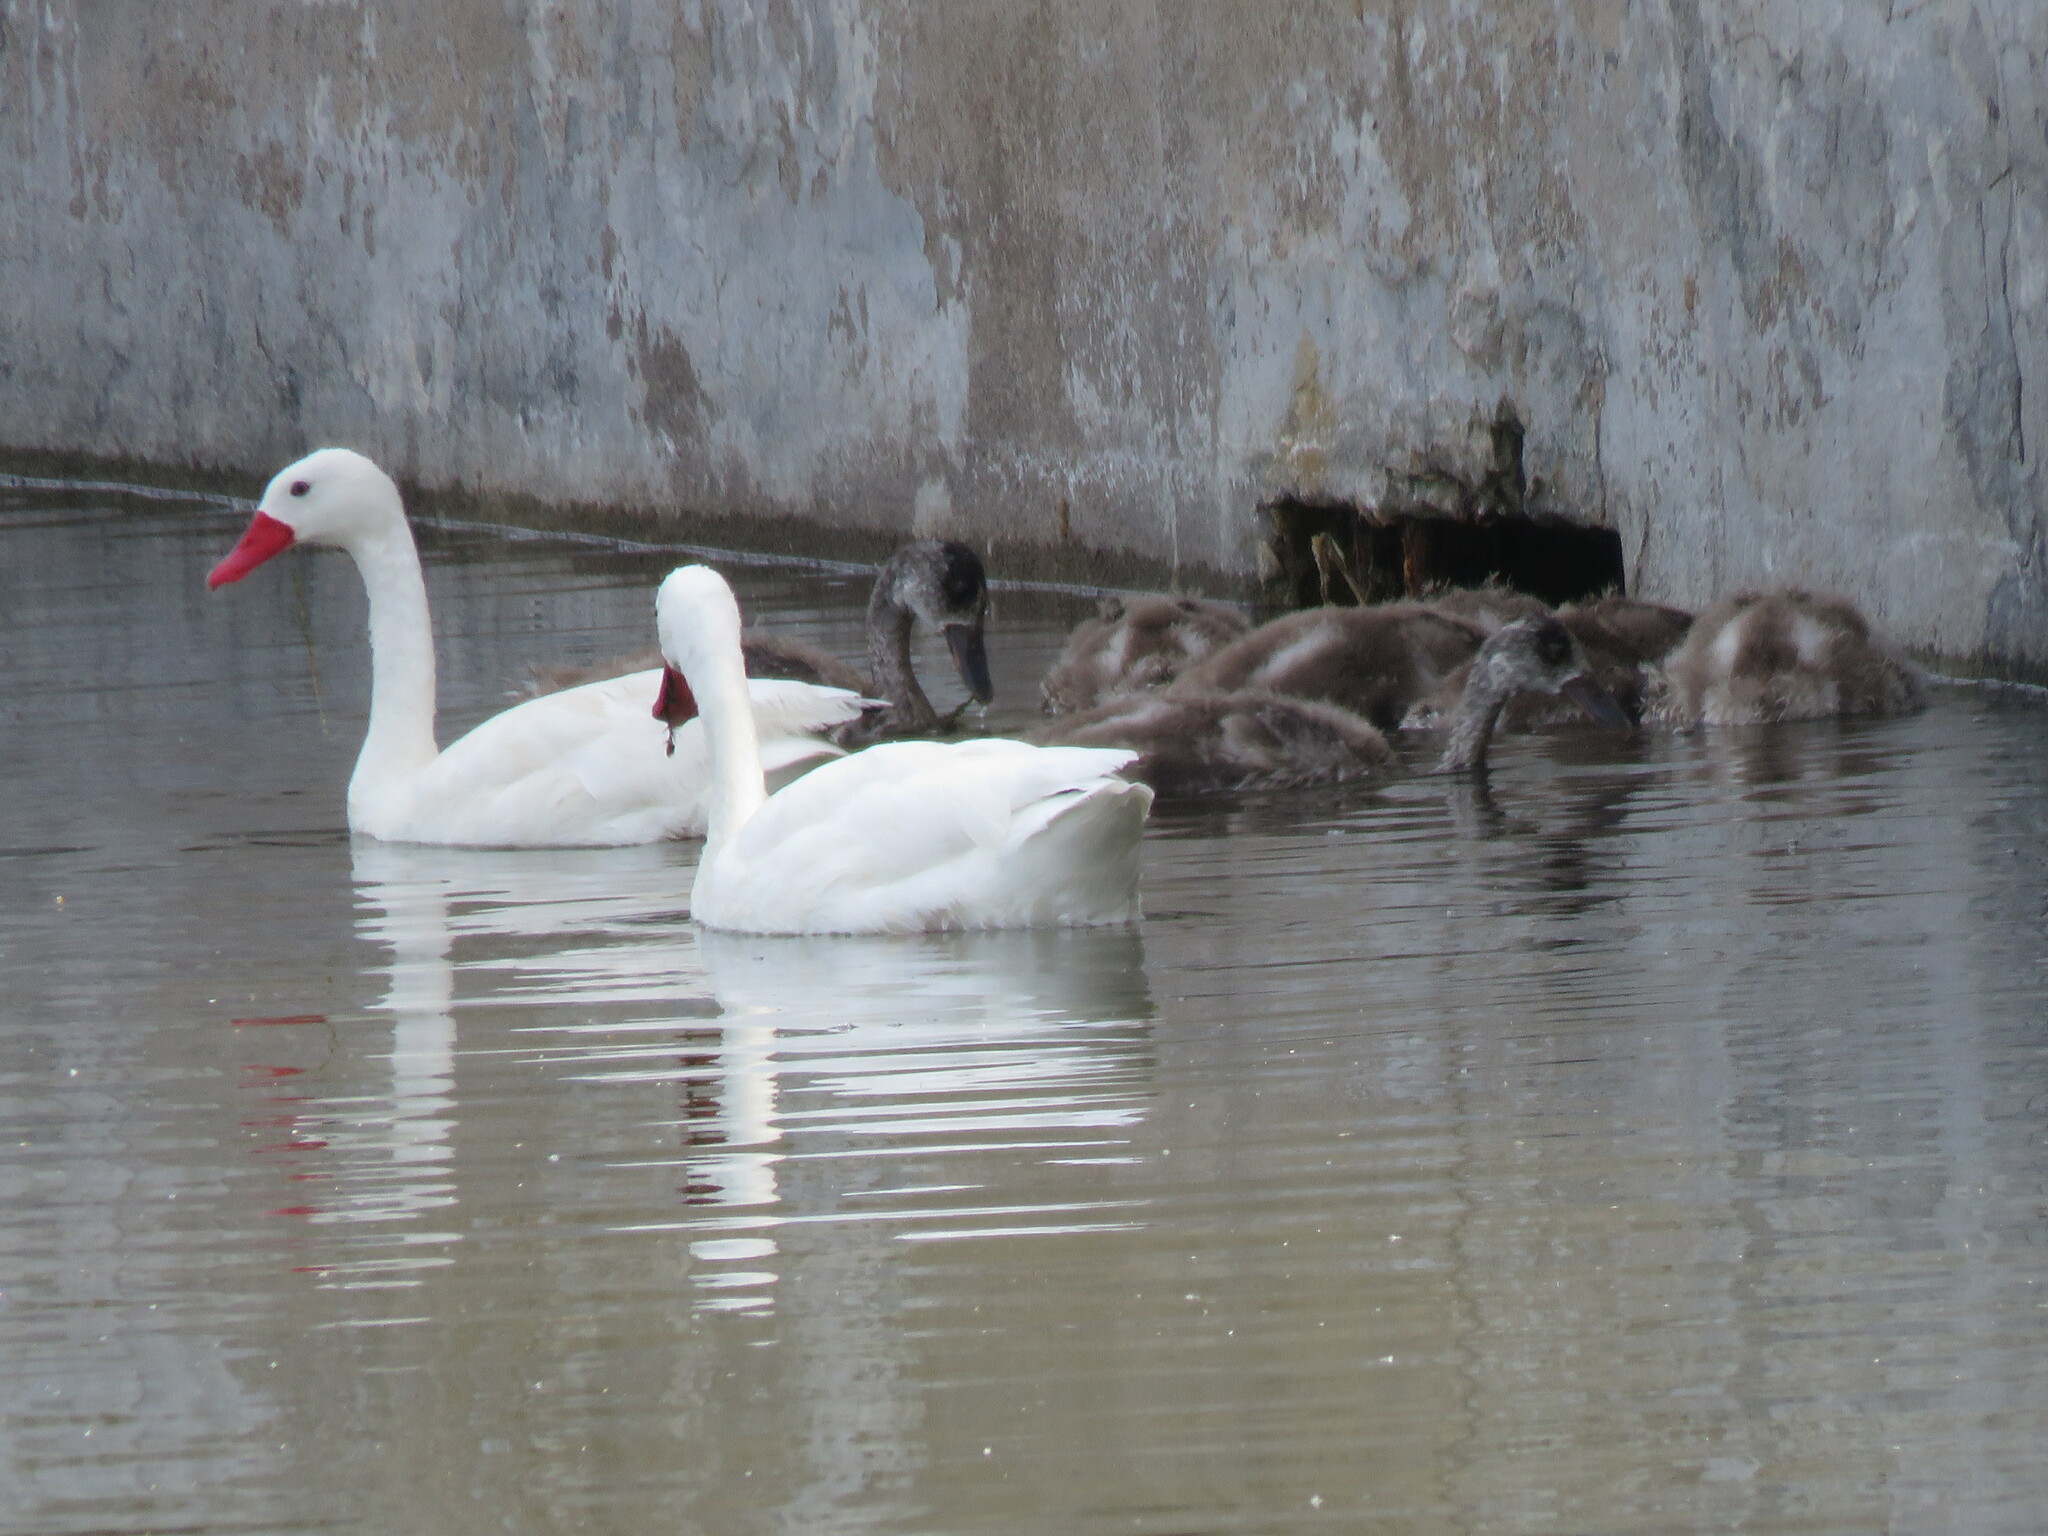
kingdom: Animalia
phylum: Chordata
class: Aves
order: Anseriformes
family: Anatidae
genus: Coscoroba
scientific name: Coscoroba coscoroba
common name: Coscoroba swan
